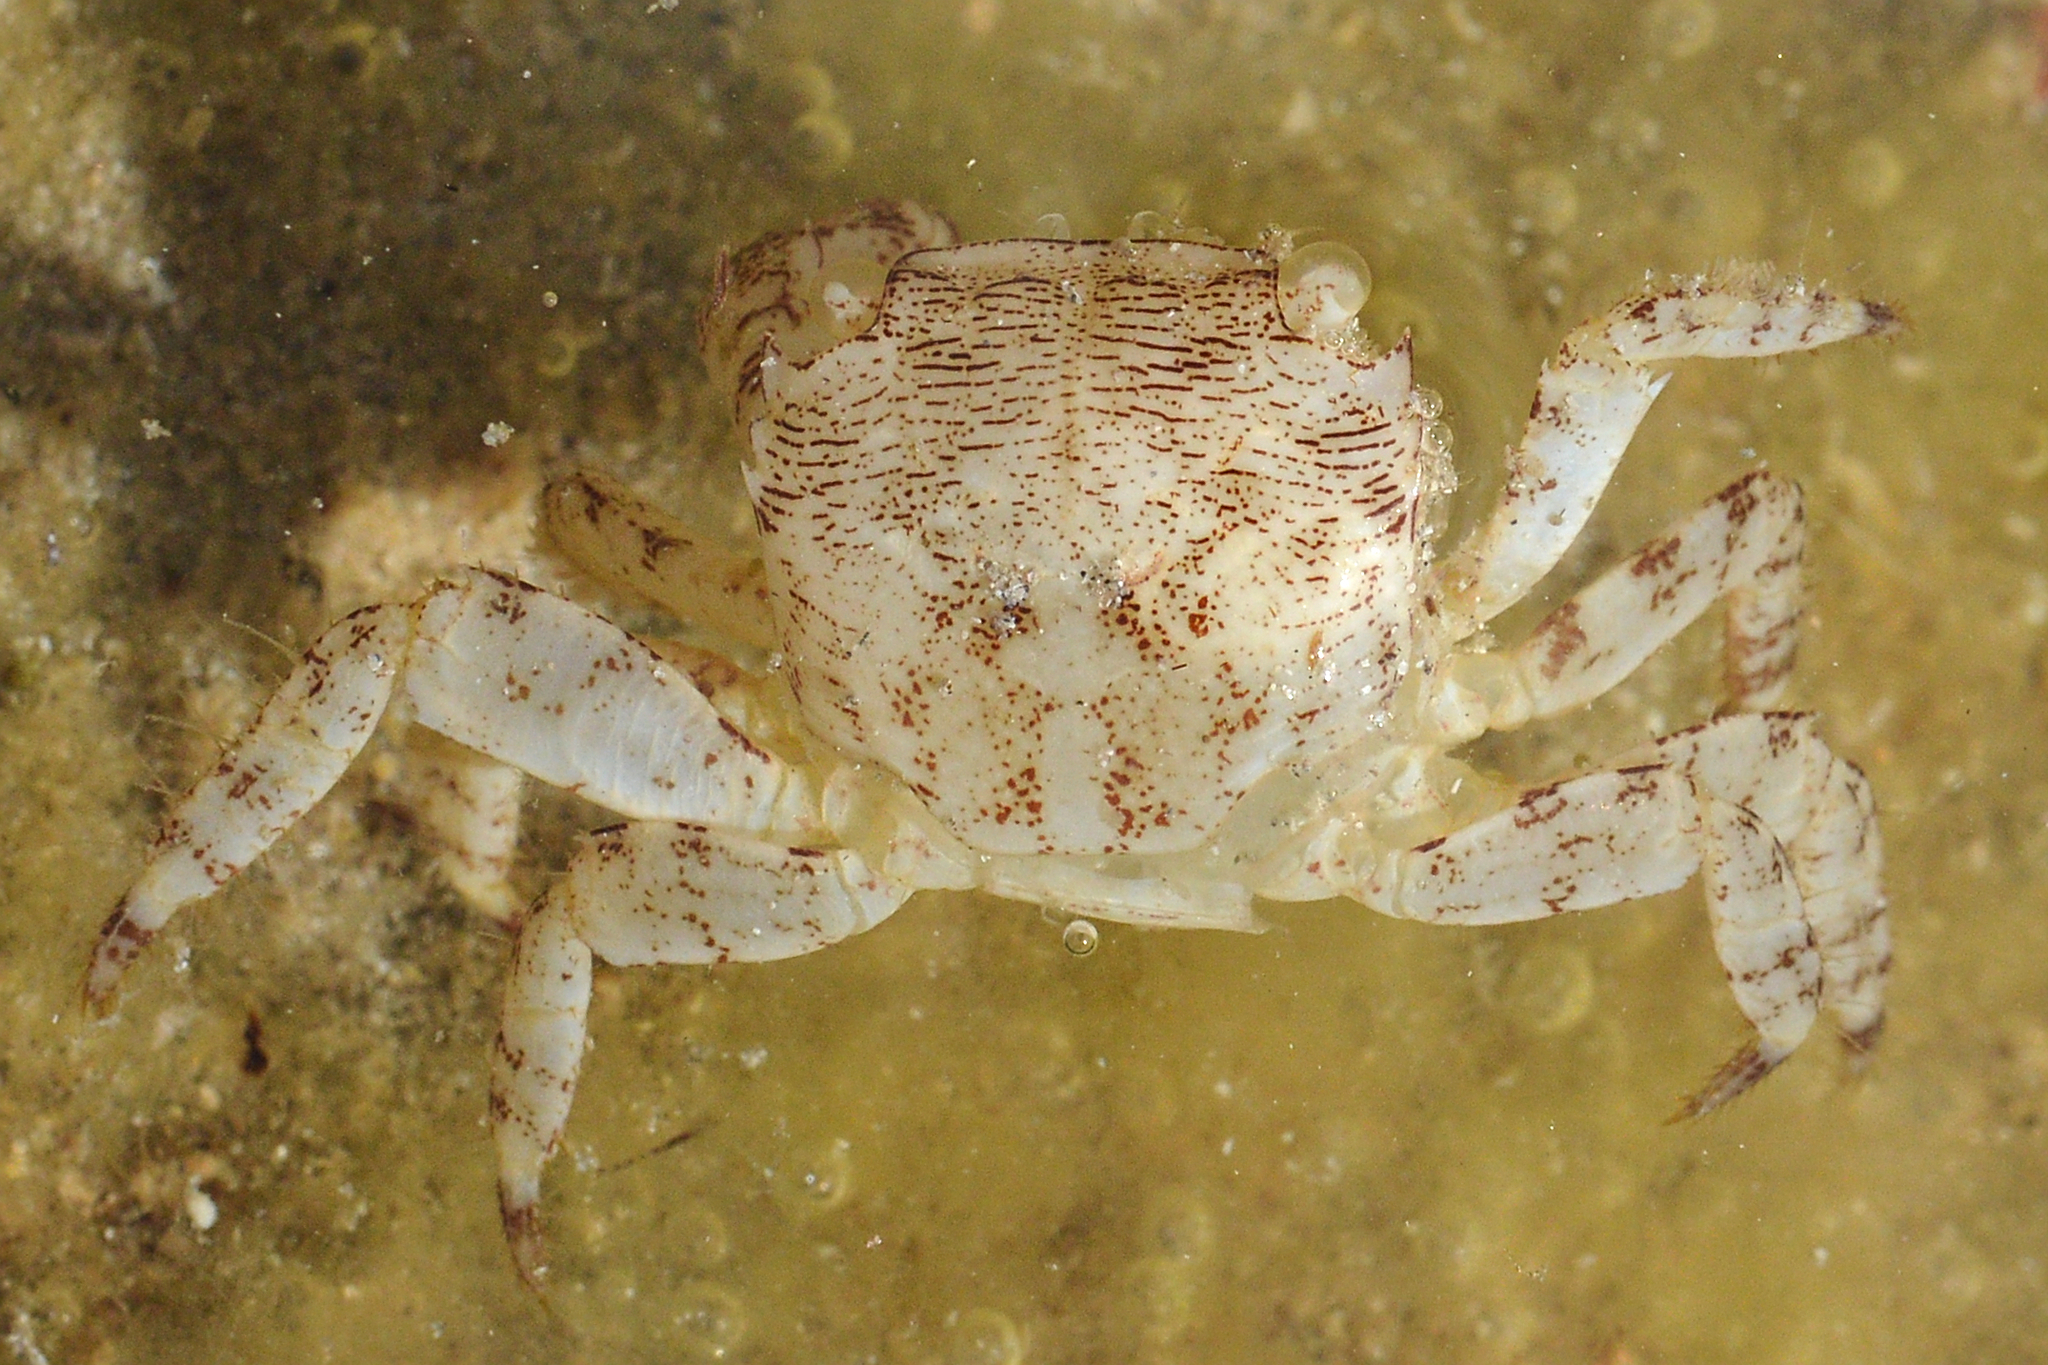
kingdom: Animalia
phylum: Arthropoda
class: Malacostraca
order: Decapoda
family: Grapsidae
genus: Pachygrapsus
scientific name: Pachygrapsus marmoratus
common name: Marbled rock crab
